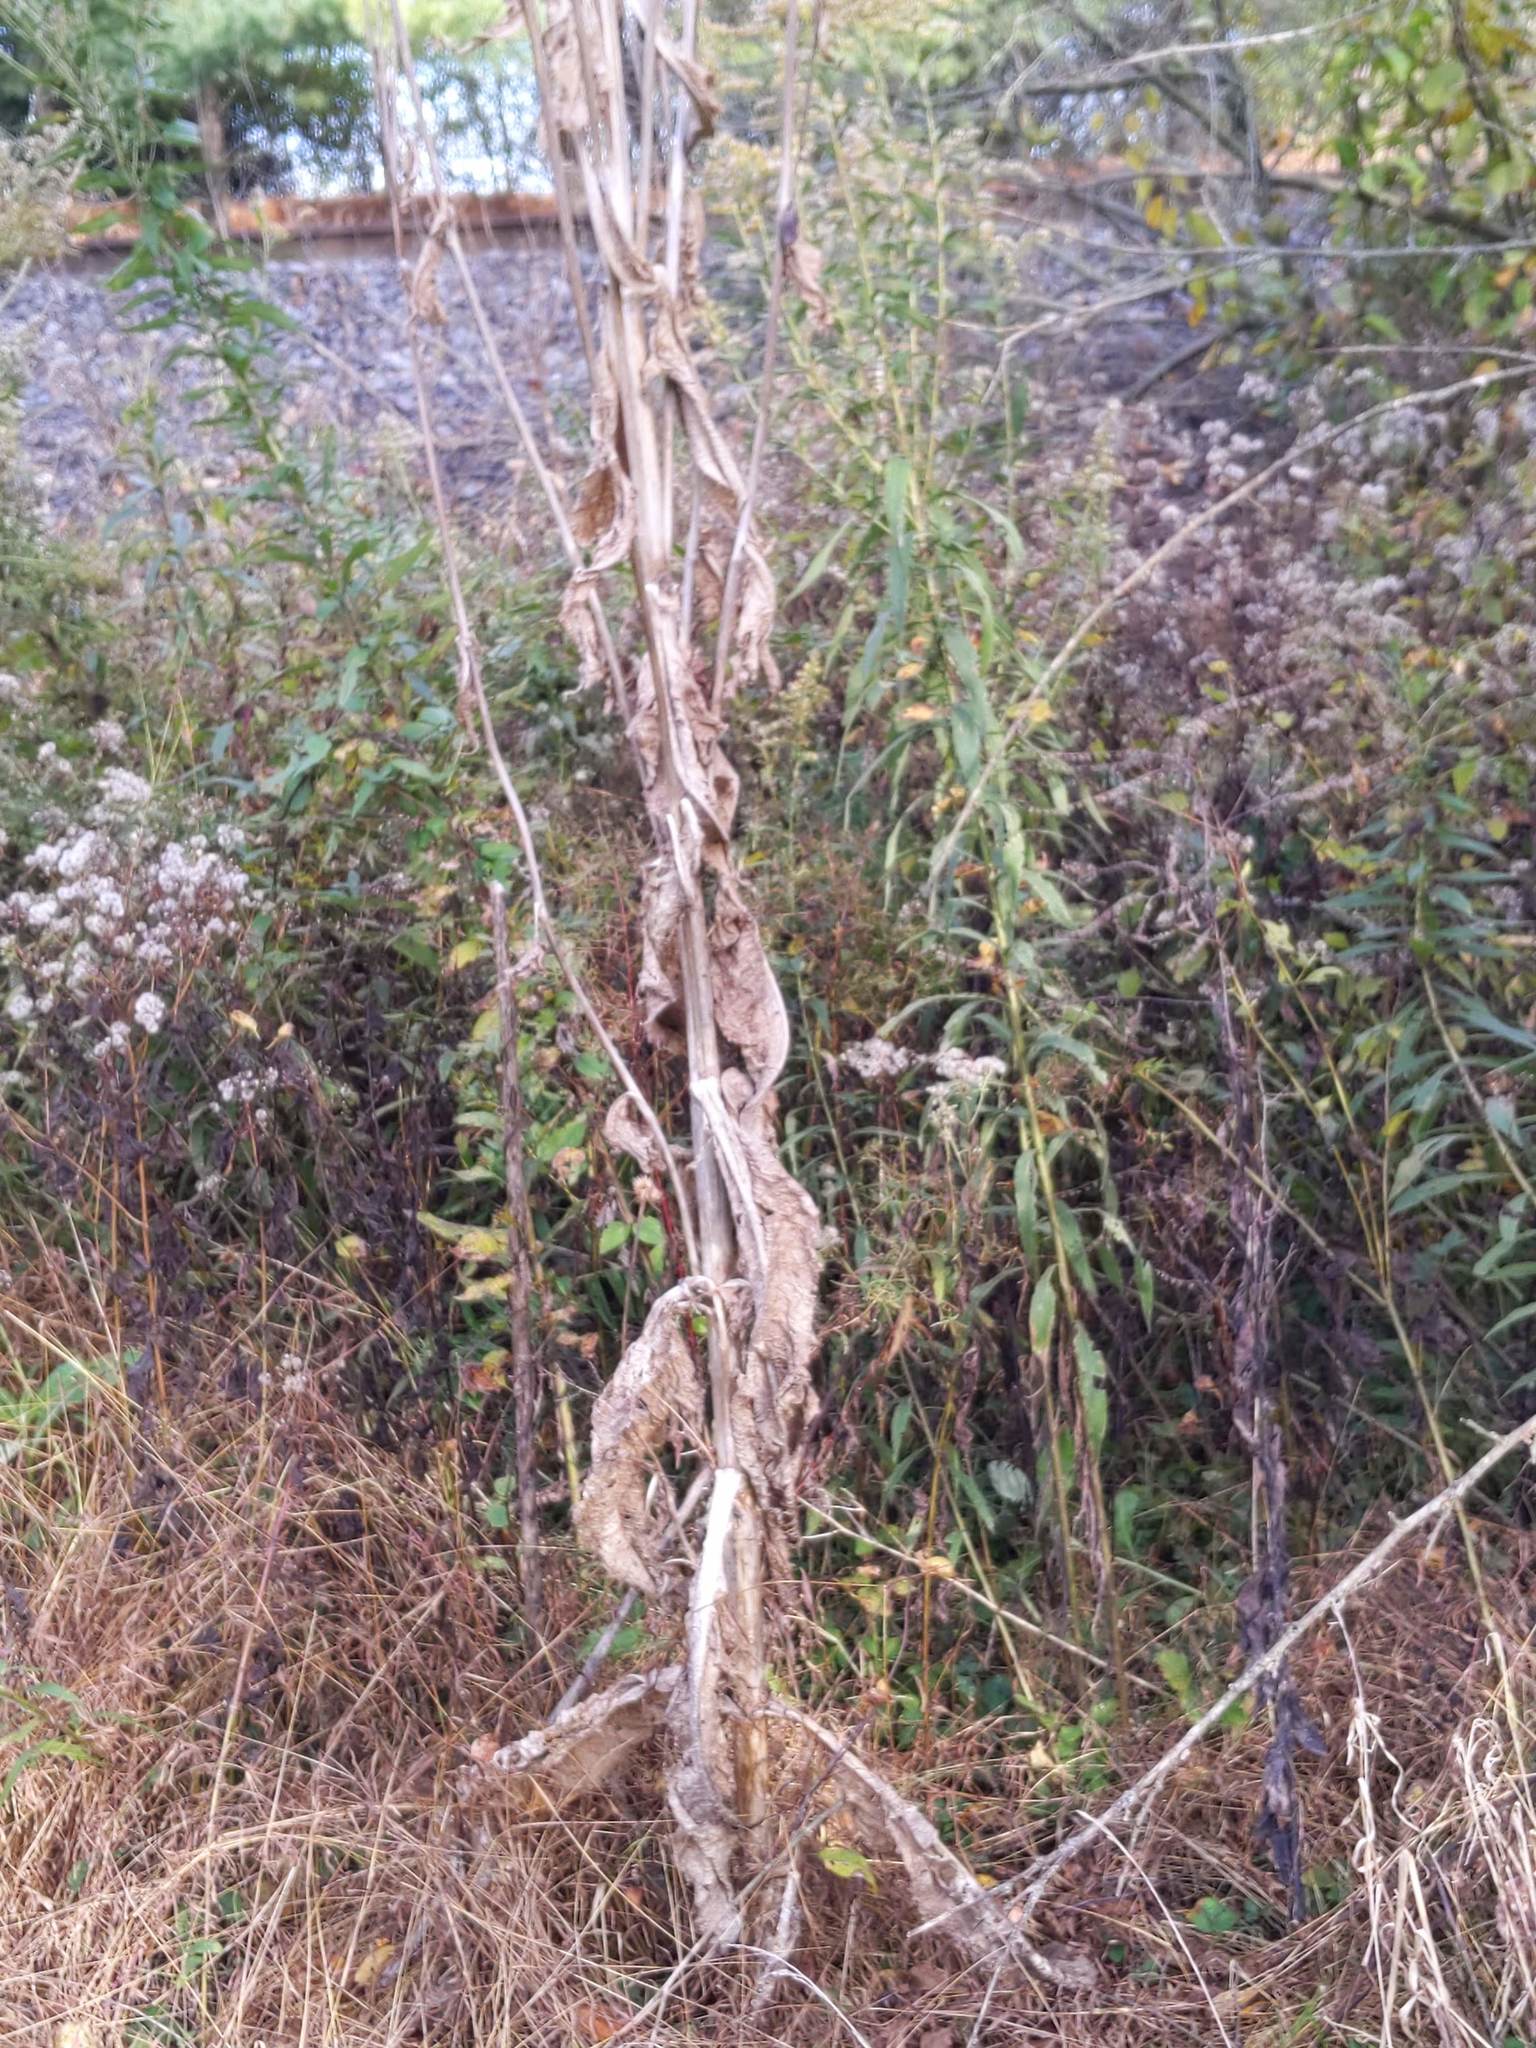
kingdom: Plantae
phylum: Tracheophyta
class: Magnoliopsida
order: Dipsacales
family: Caprifoliaceae
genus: Dipsacus
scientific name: Dipsacus laciniatus
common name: Cut-leaved teasel
